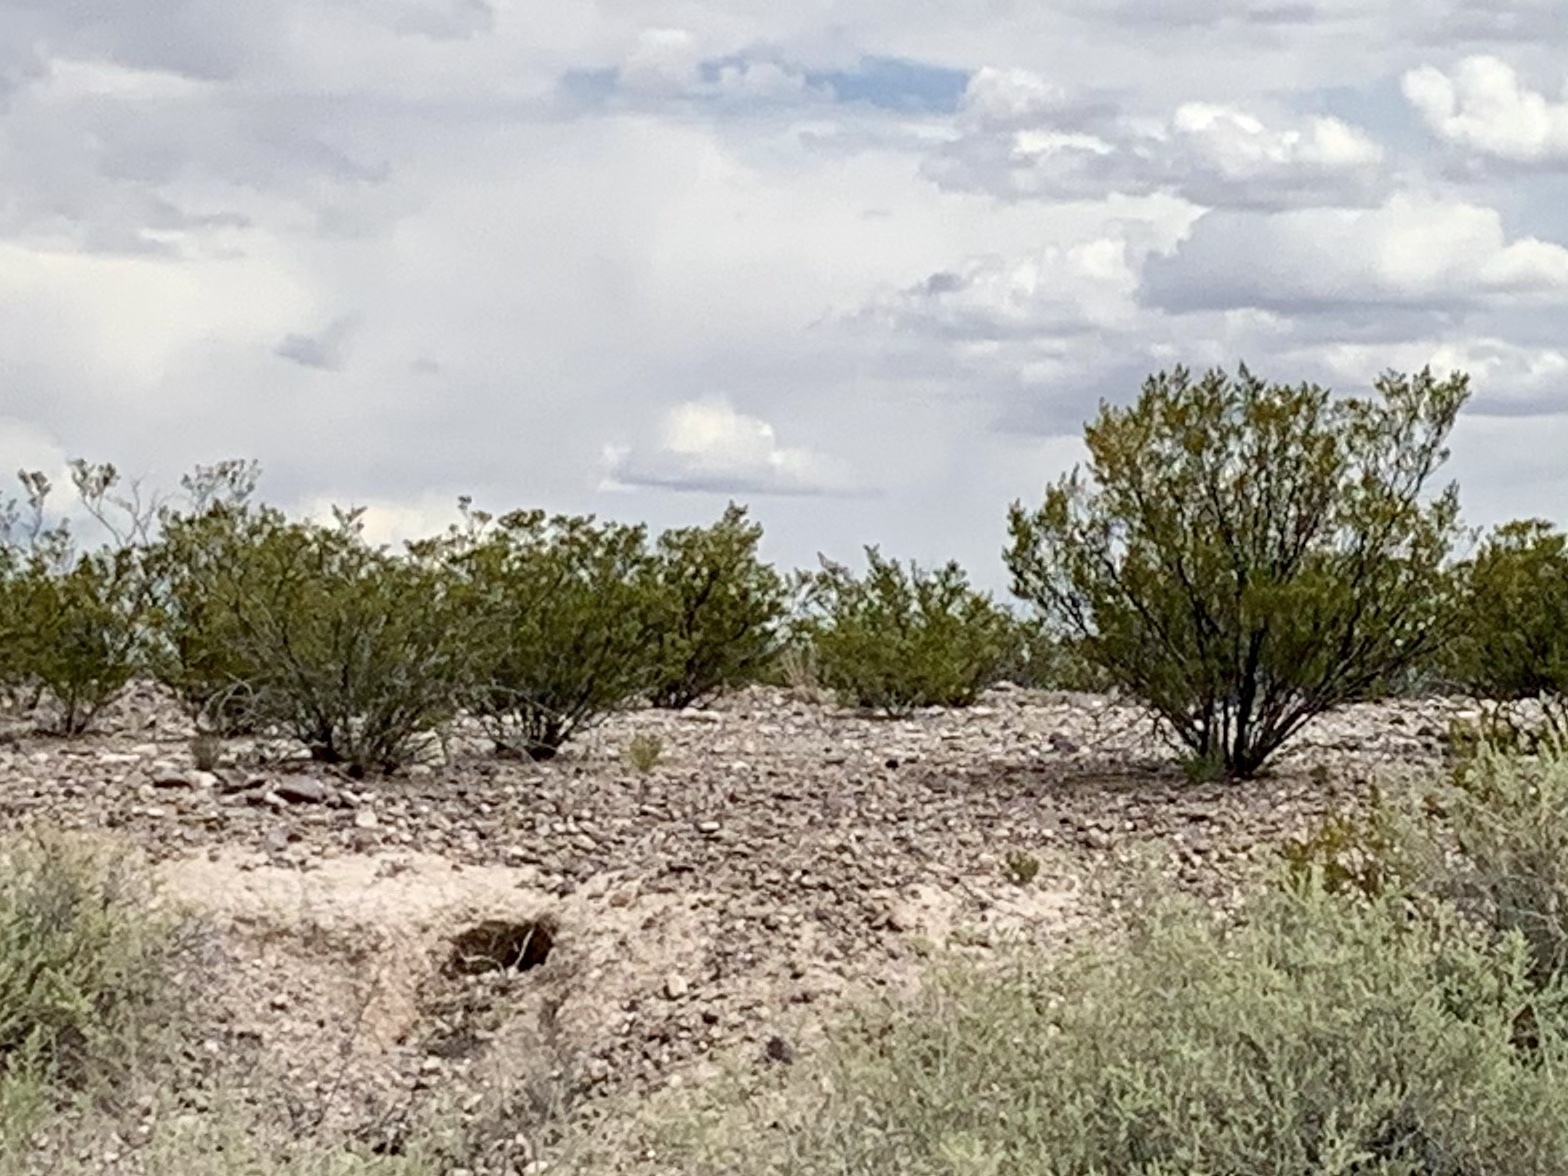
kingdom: Plantae
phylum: Tracheophyta
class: Magnoliopsida
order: Zygophyllales
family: Zygophyllaceae
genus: Larrea
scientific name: Larrea tridentata
